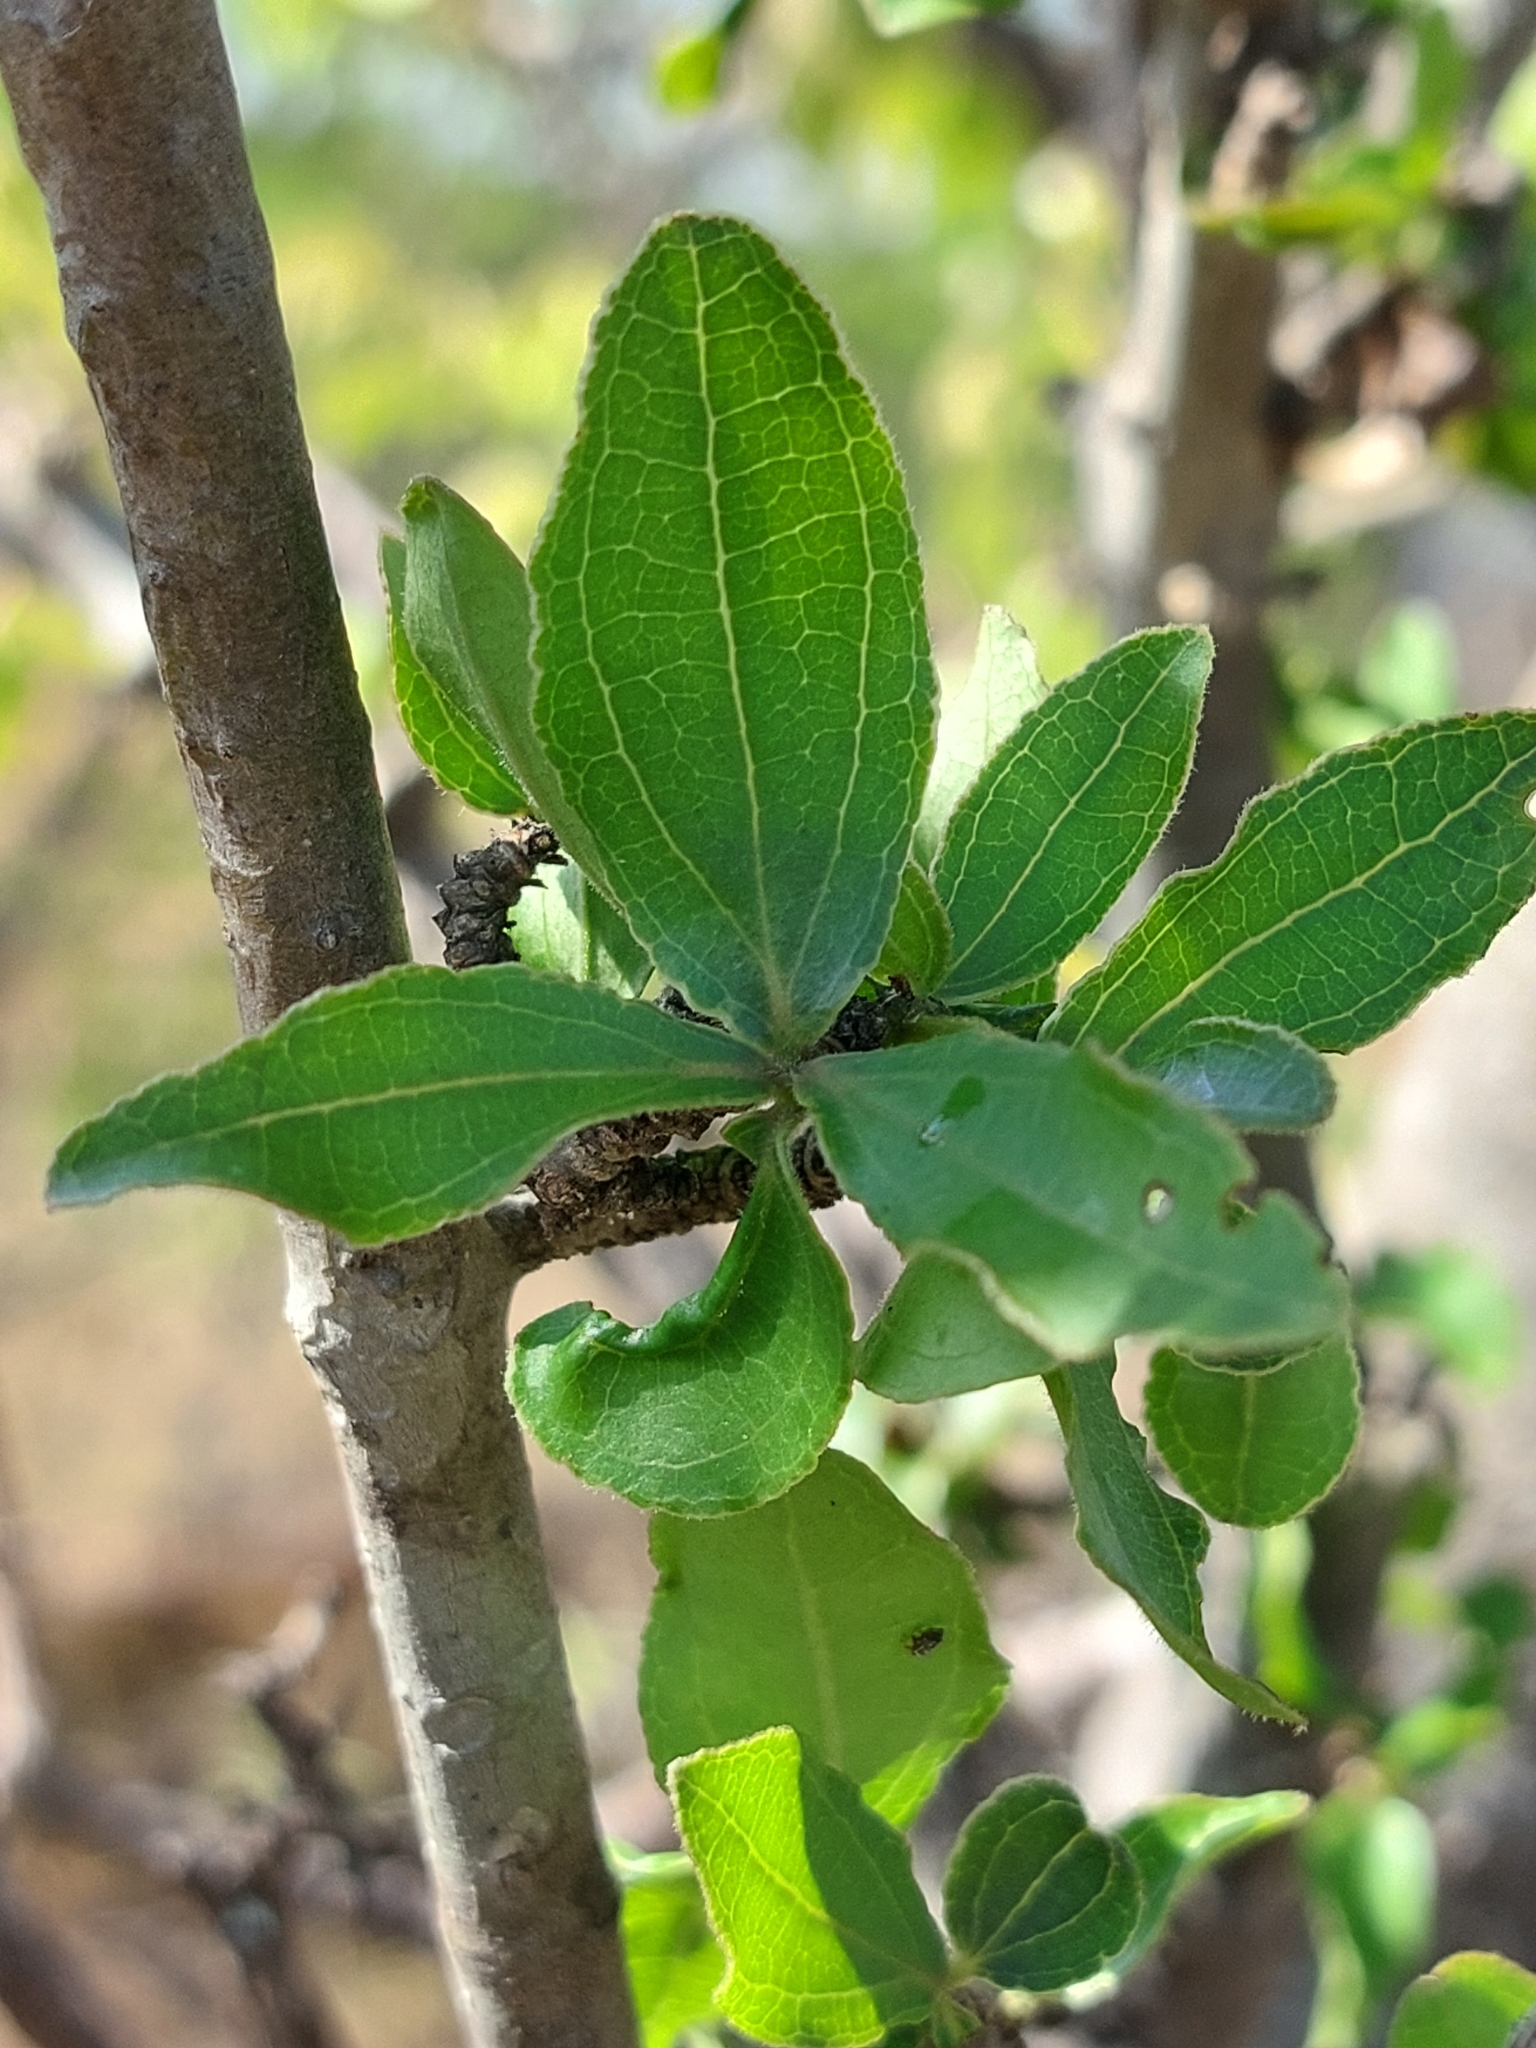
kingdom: Plantae
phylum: Tracheophyta
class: Magnoliopsida
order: Gentianales
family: Loganiaceae
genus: Strychnos
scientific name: Strychnos madagascariensis
